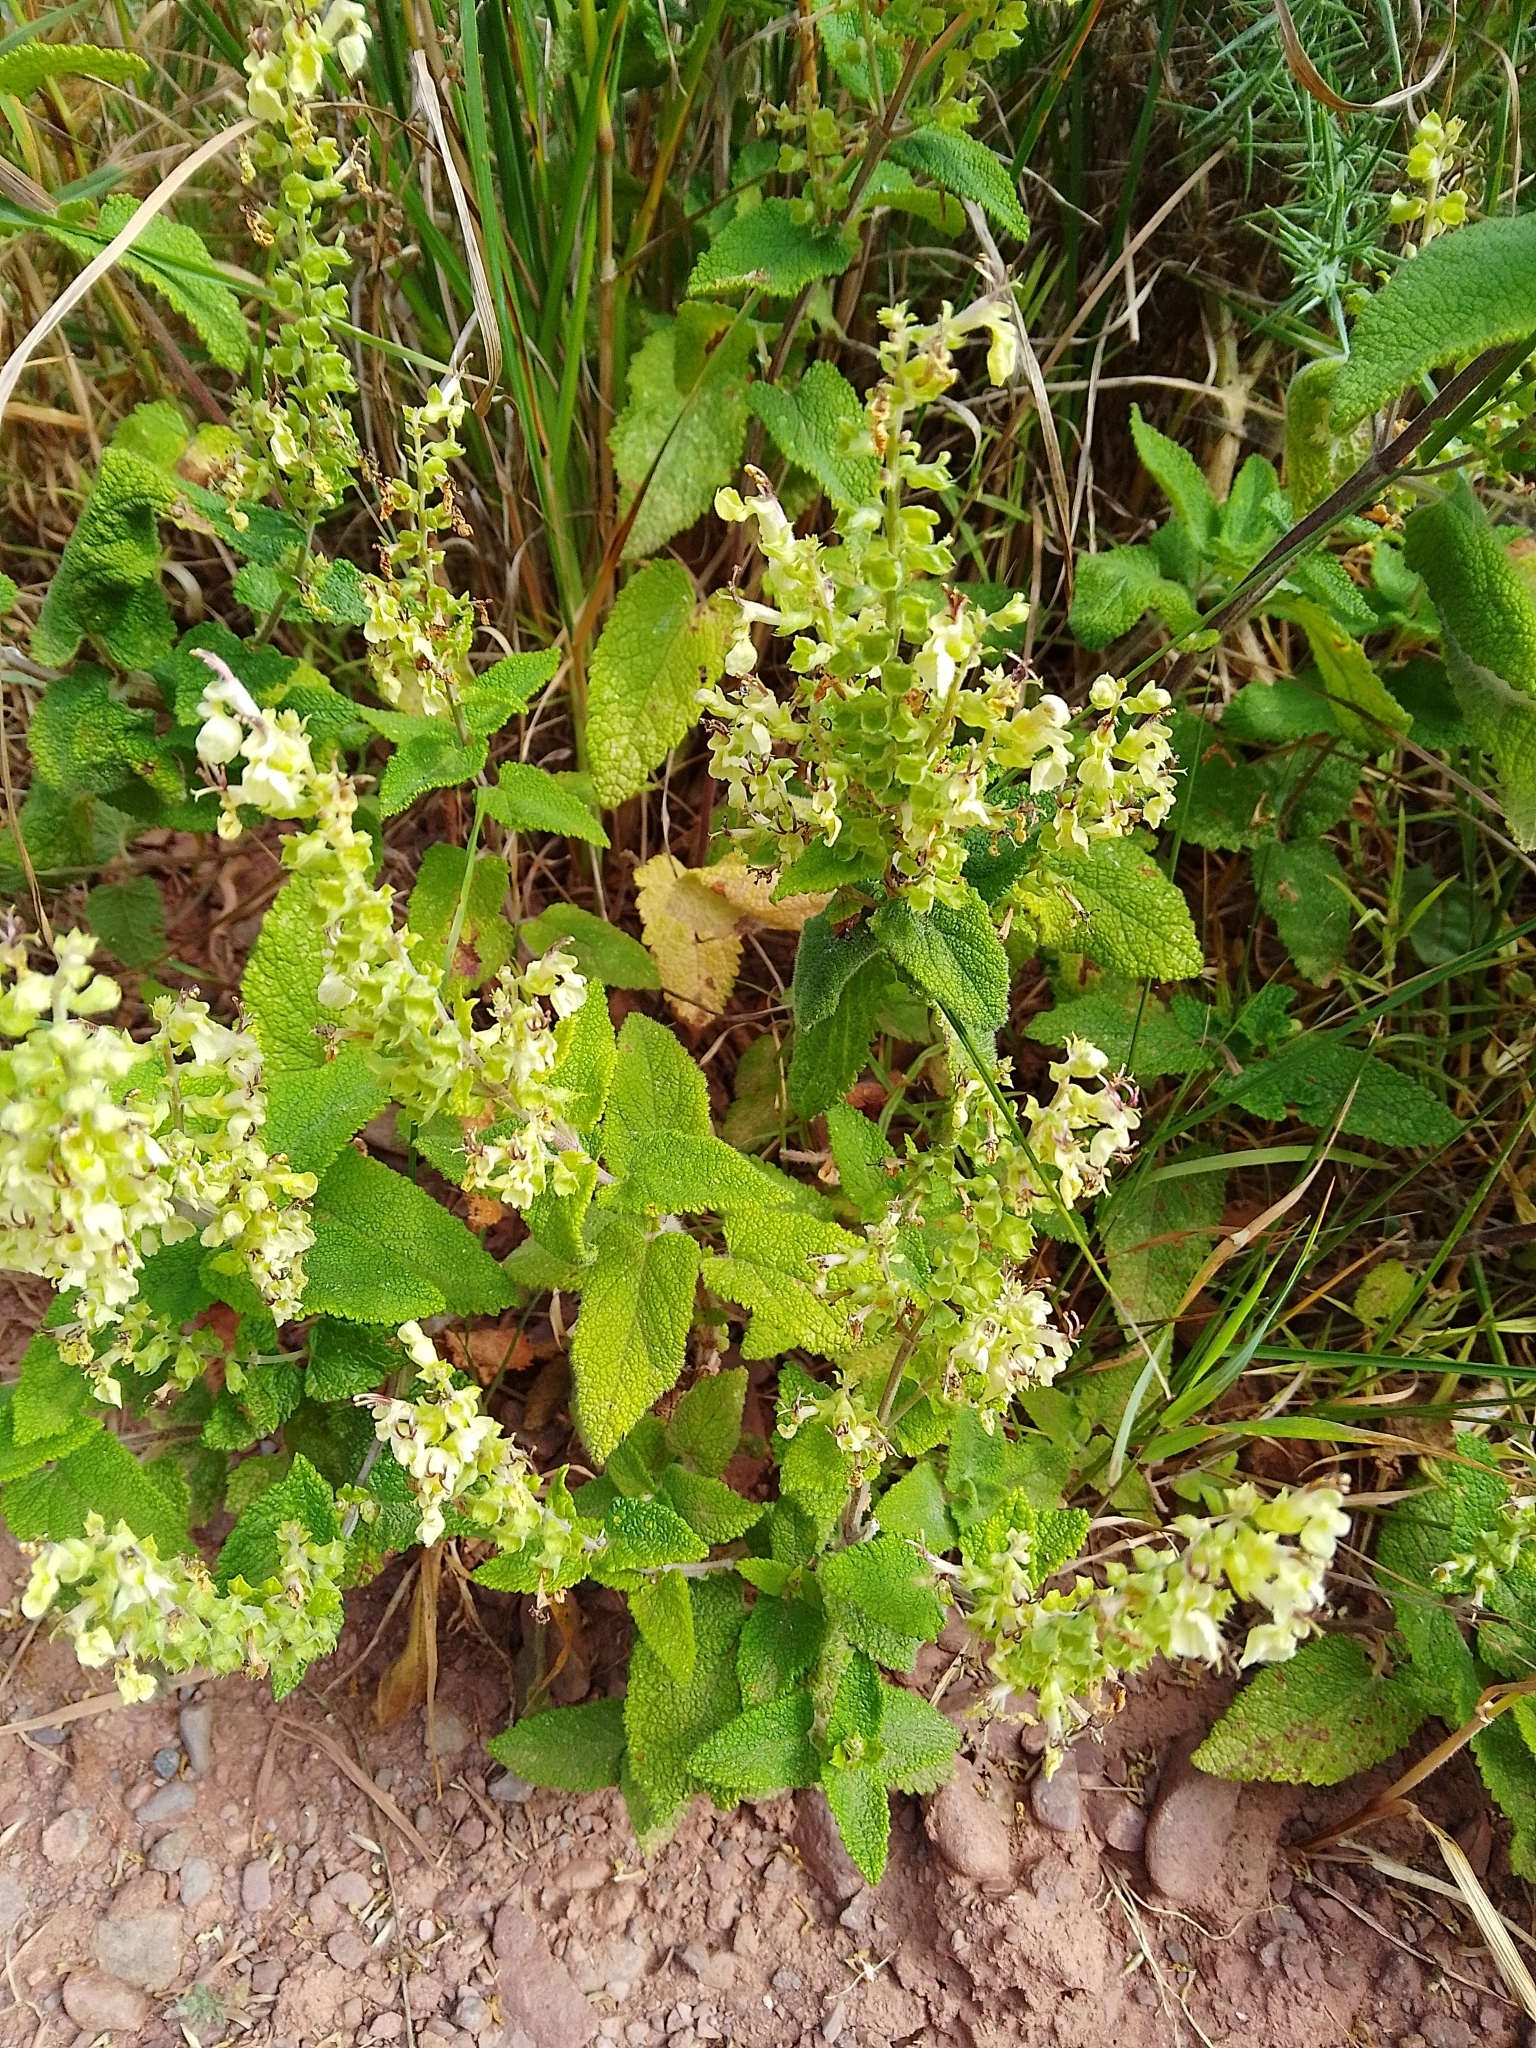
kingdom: Plantae
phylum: Tracheophyta
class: Magnoliopsida
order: Lamiales
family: Lamiaceae
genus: Teucrium
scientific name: Teucrium scorodonia
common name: Woodland germander
